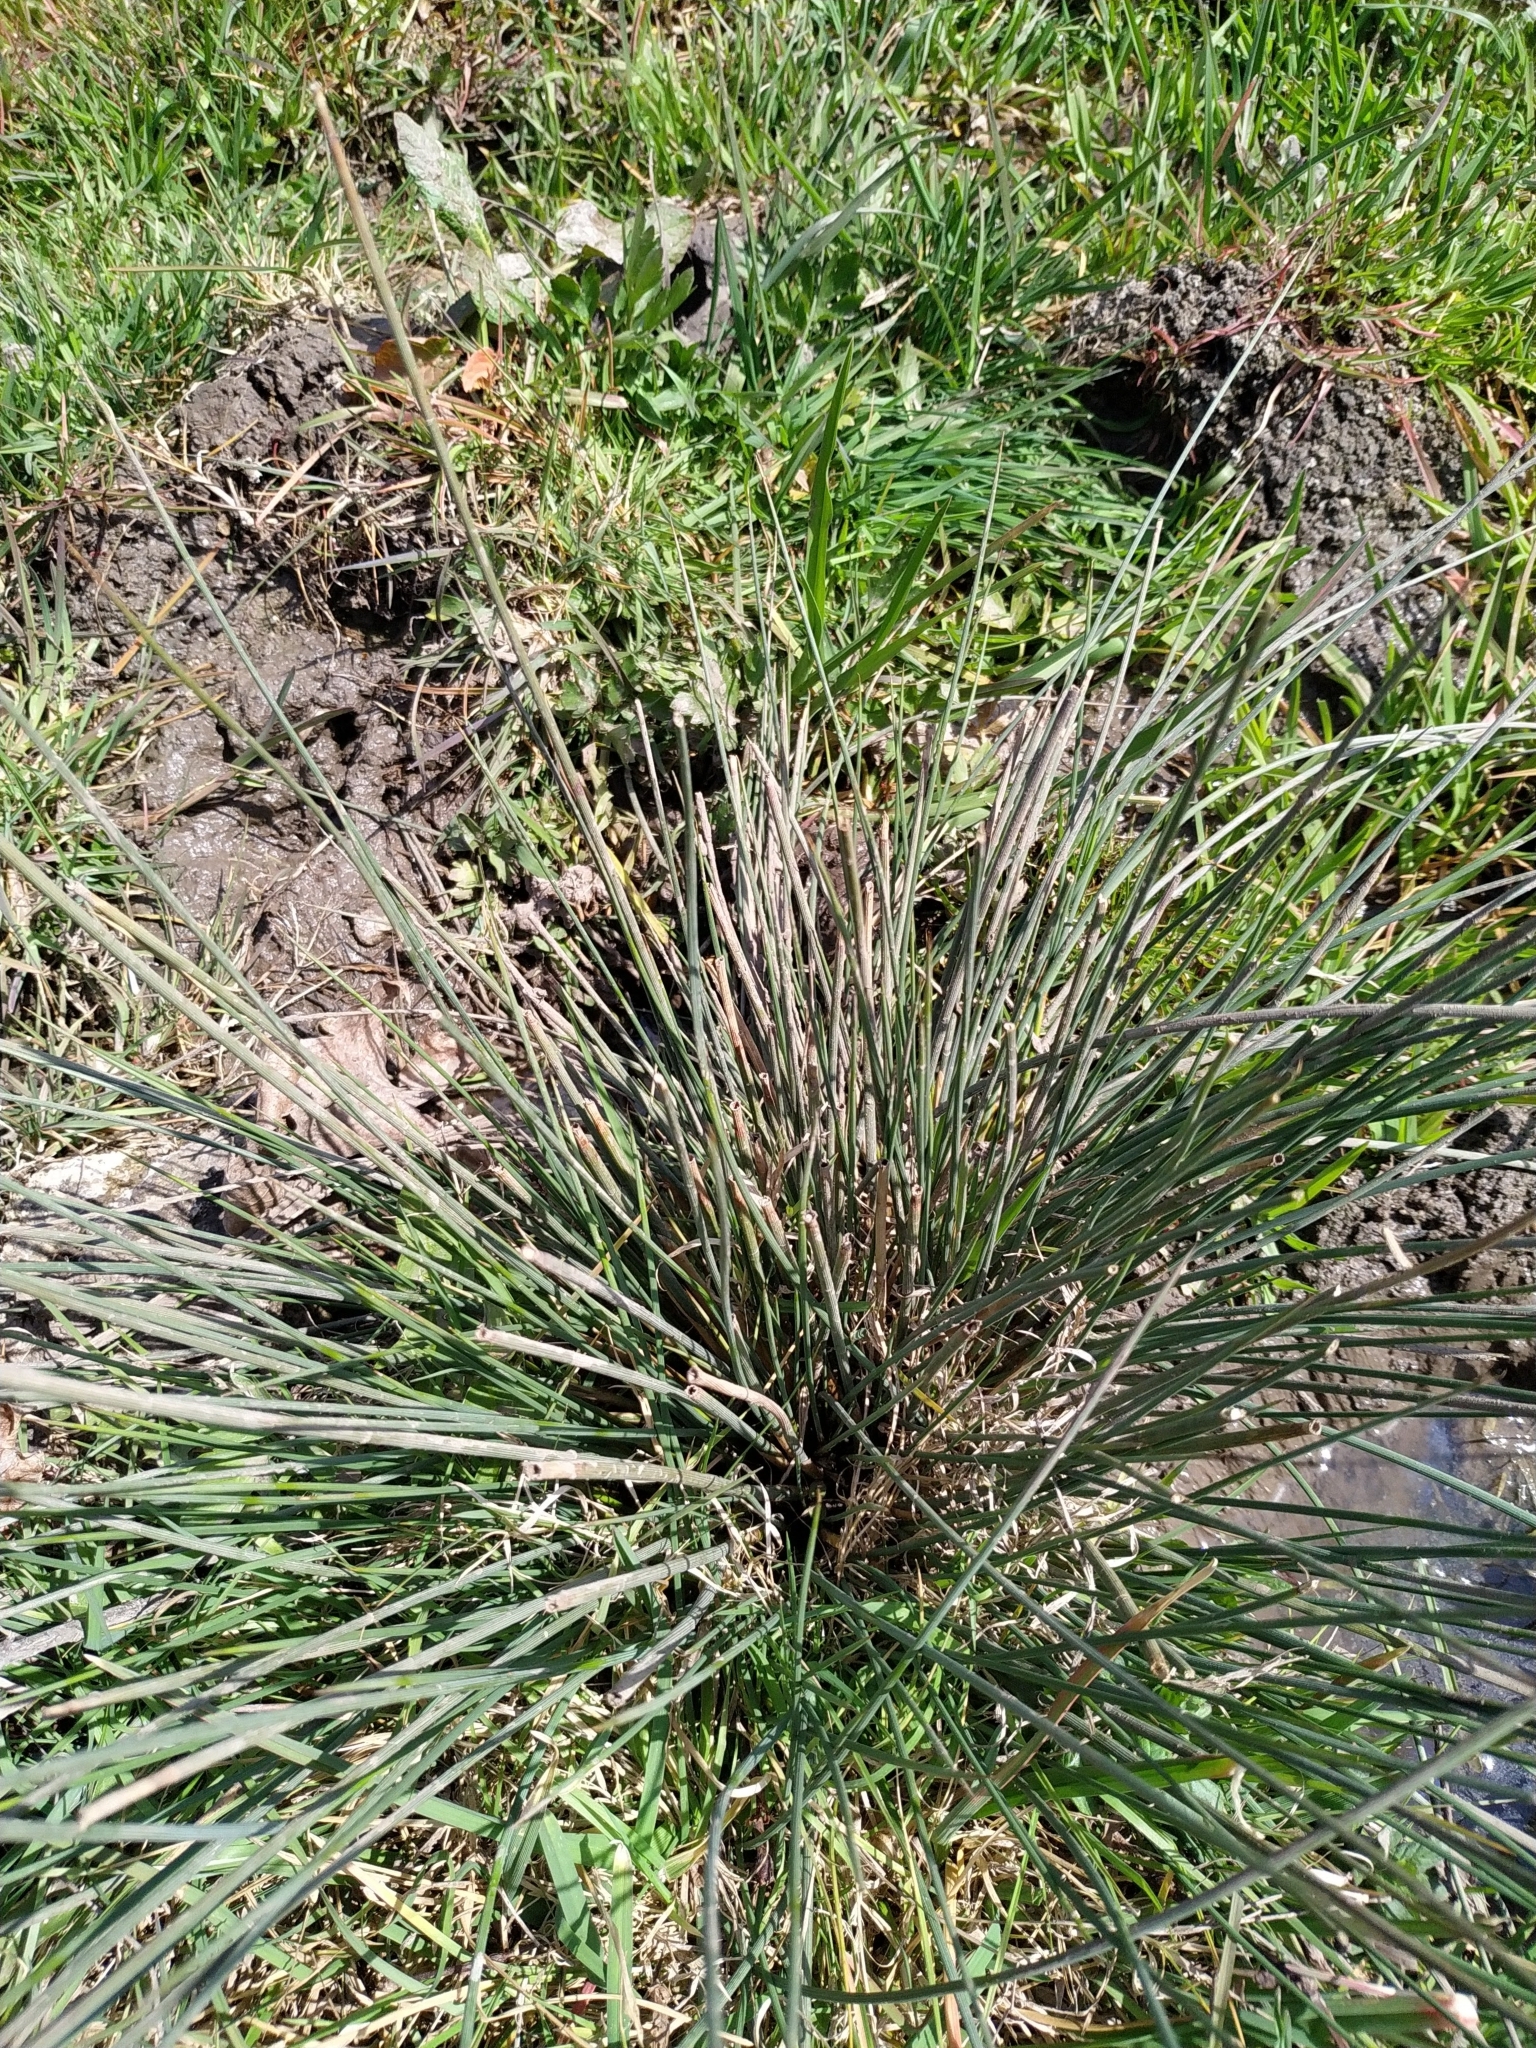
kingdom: Plantae
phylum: Tracheophyta
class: Liliopsida
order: Poales
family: Juncaceae
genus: Juncus
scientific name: Juncus inflexus
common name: Hard rush
